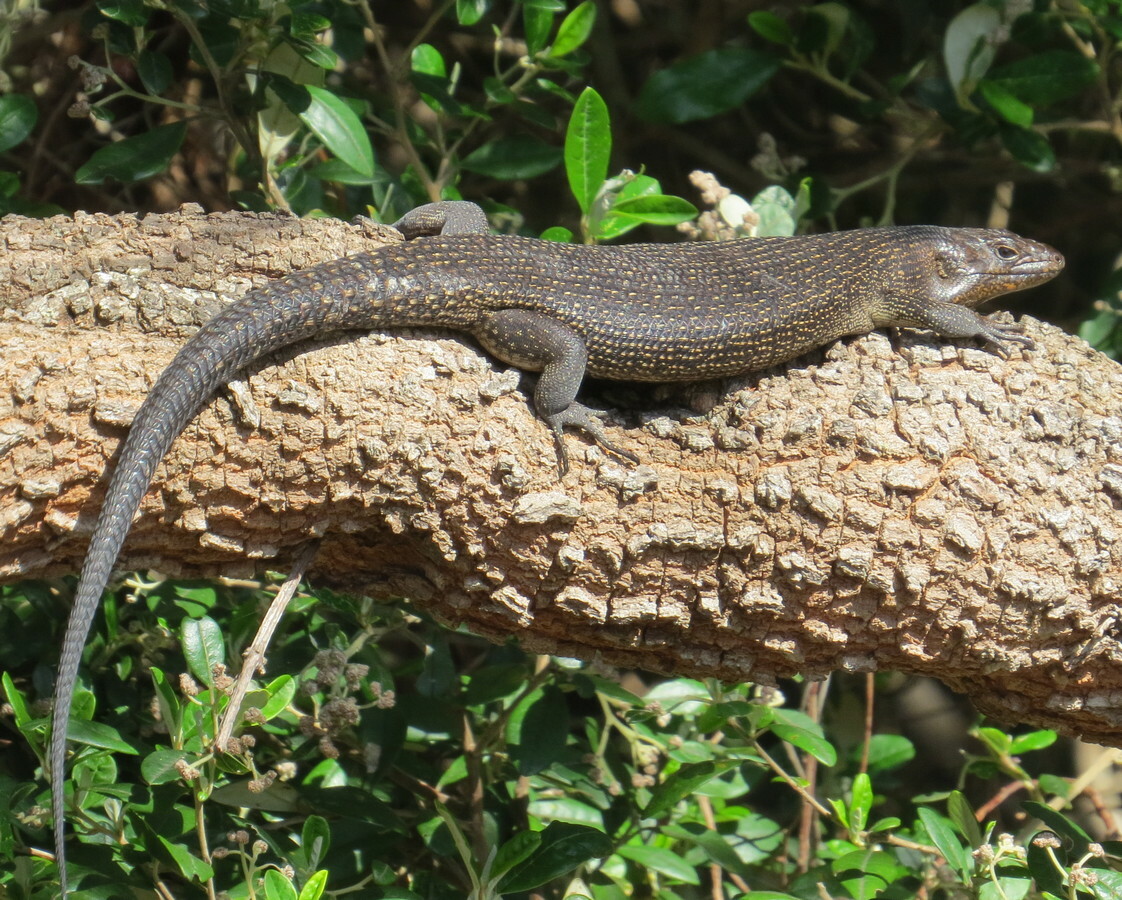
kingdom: Animalia
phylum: Chordata
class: Squamata
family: Scincidae
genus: Egernia
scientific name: Egernia kingii
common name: King's skink
